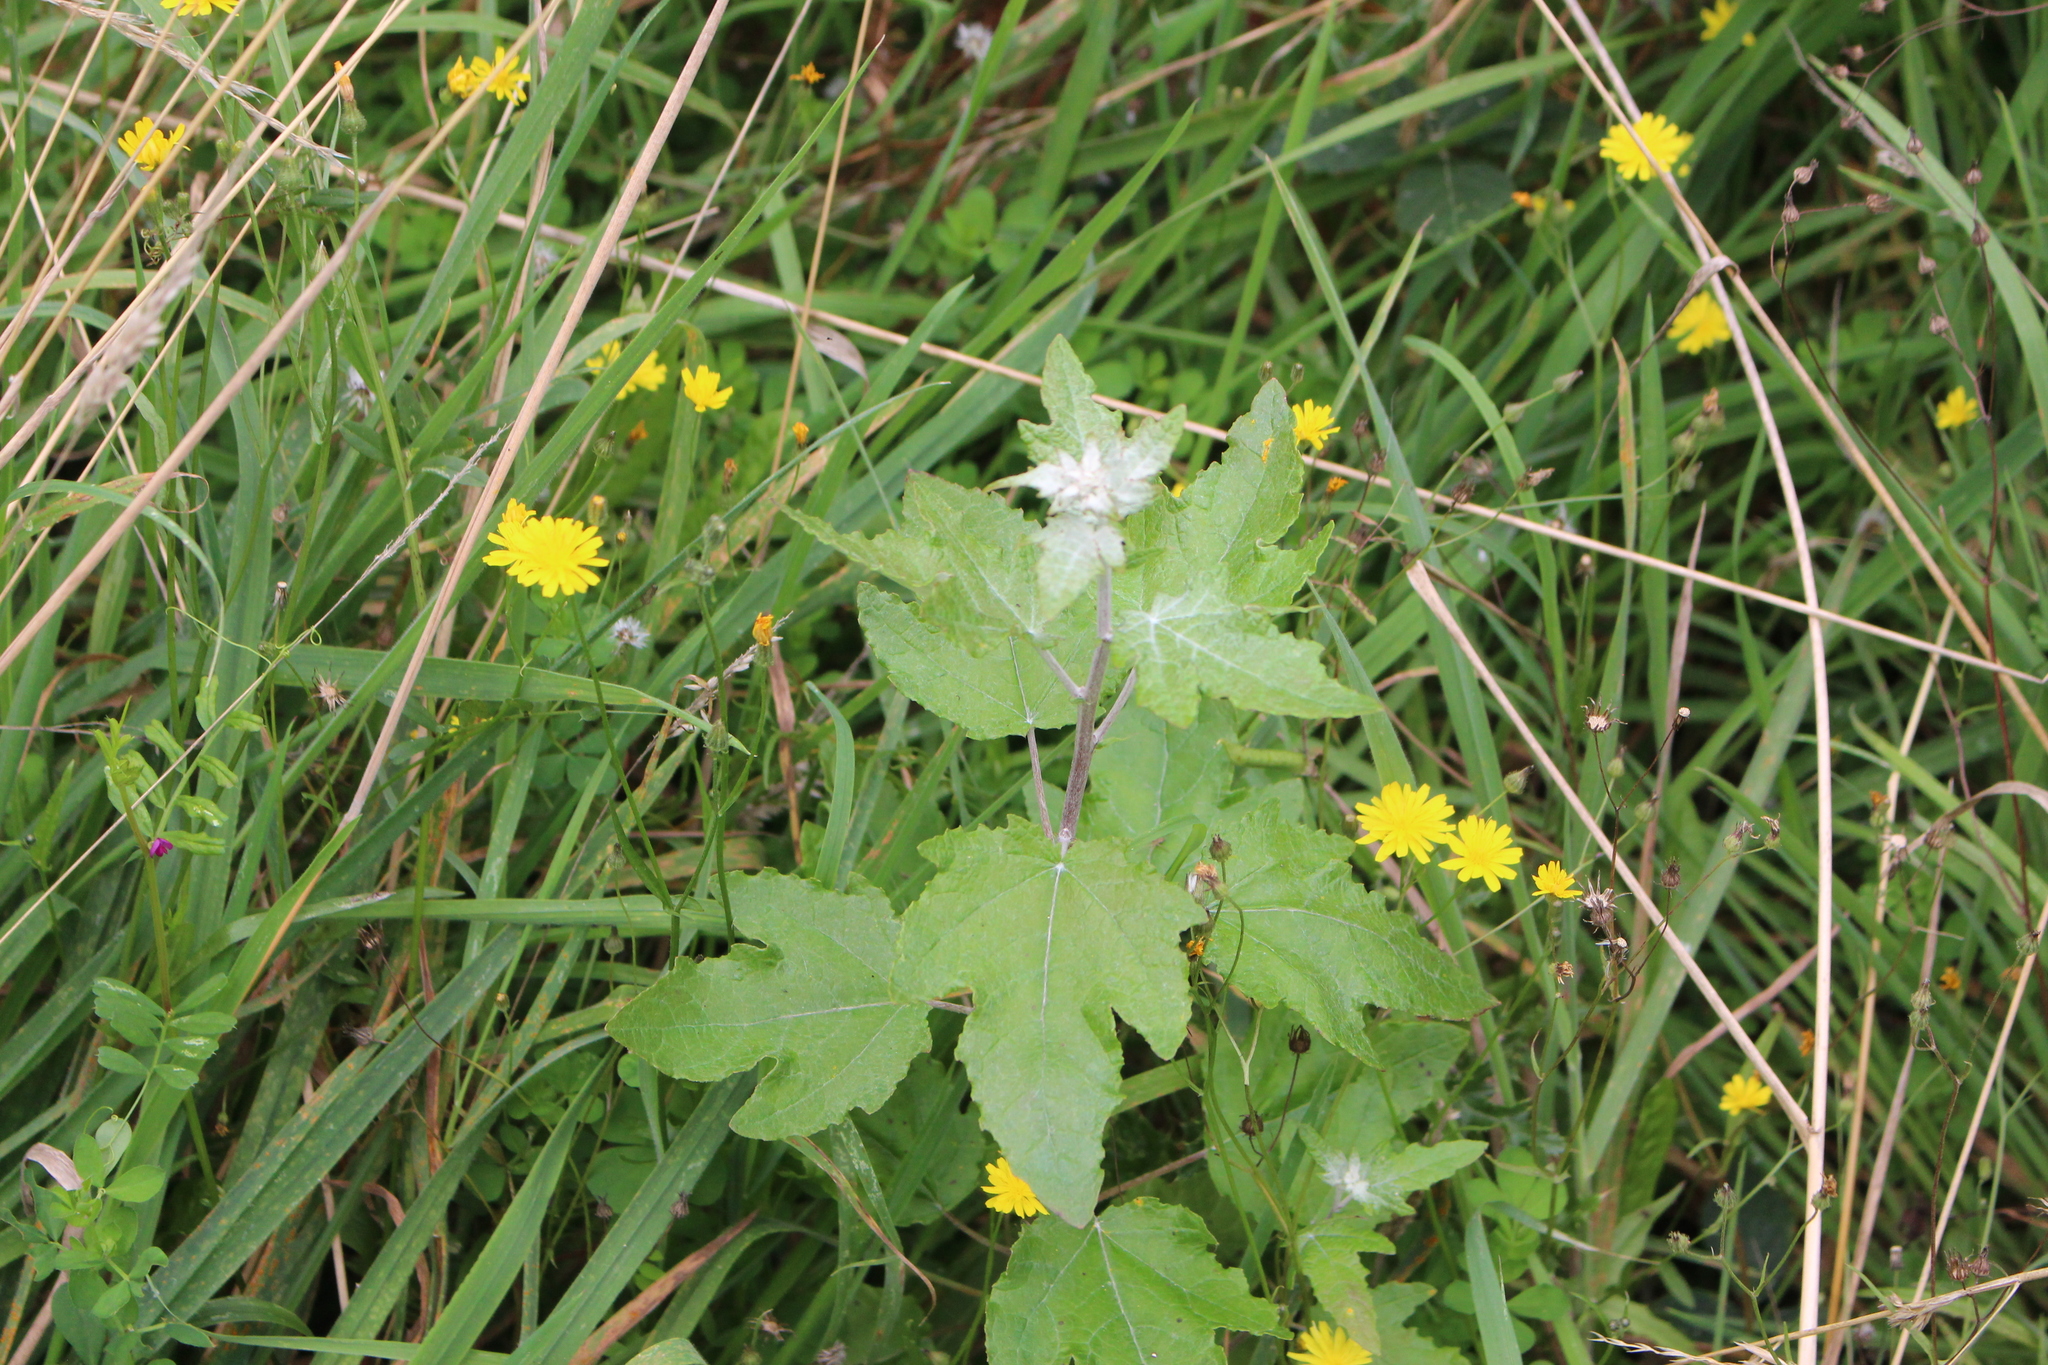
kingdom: Plantae
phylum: Tracheophyta
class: Magnoliopsida
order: Malpighiales
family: Salicaceae
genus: Populus
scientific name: Populus alba
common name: White poplar
